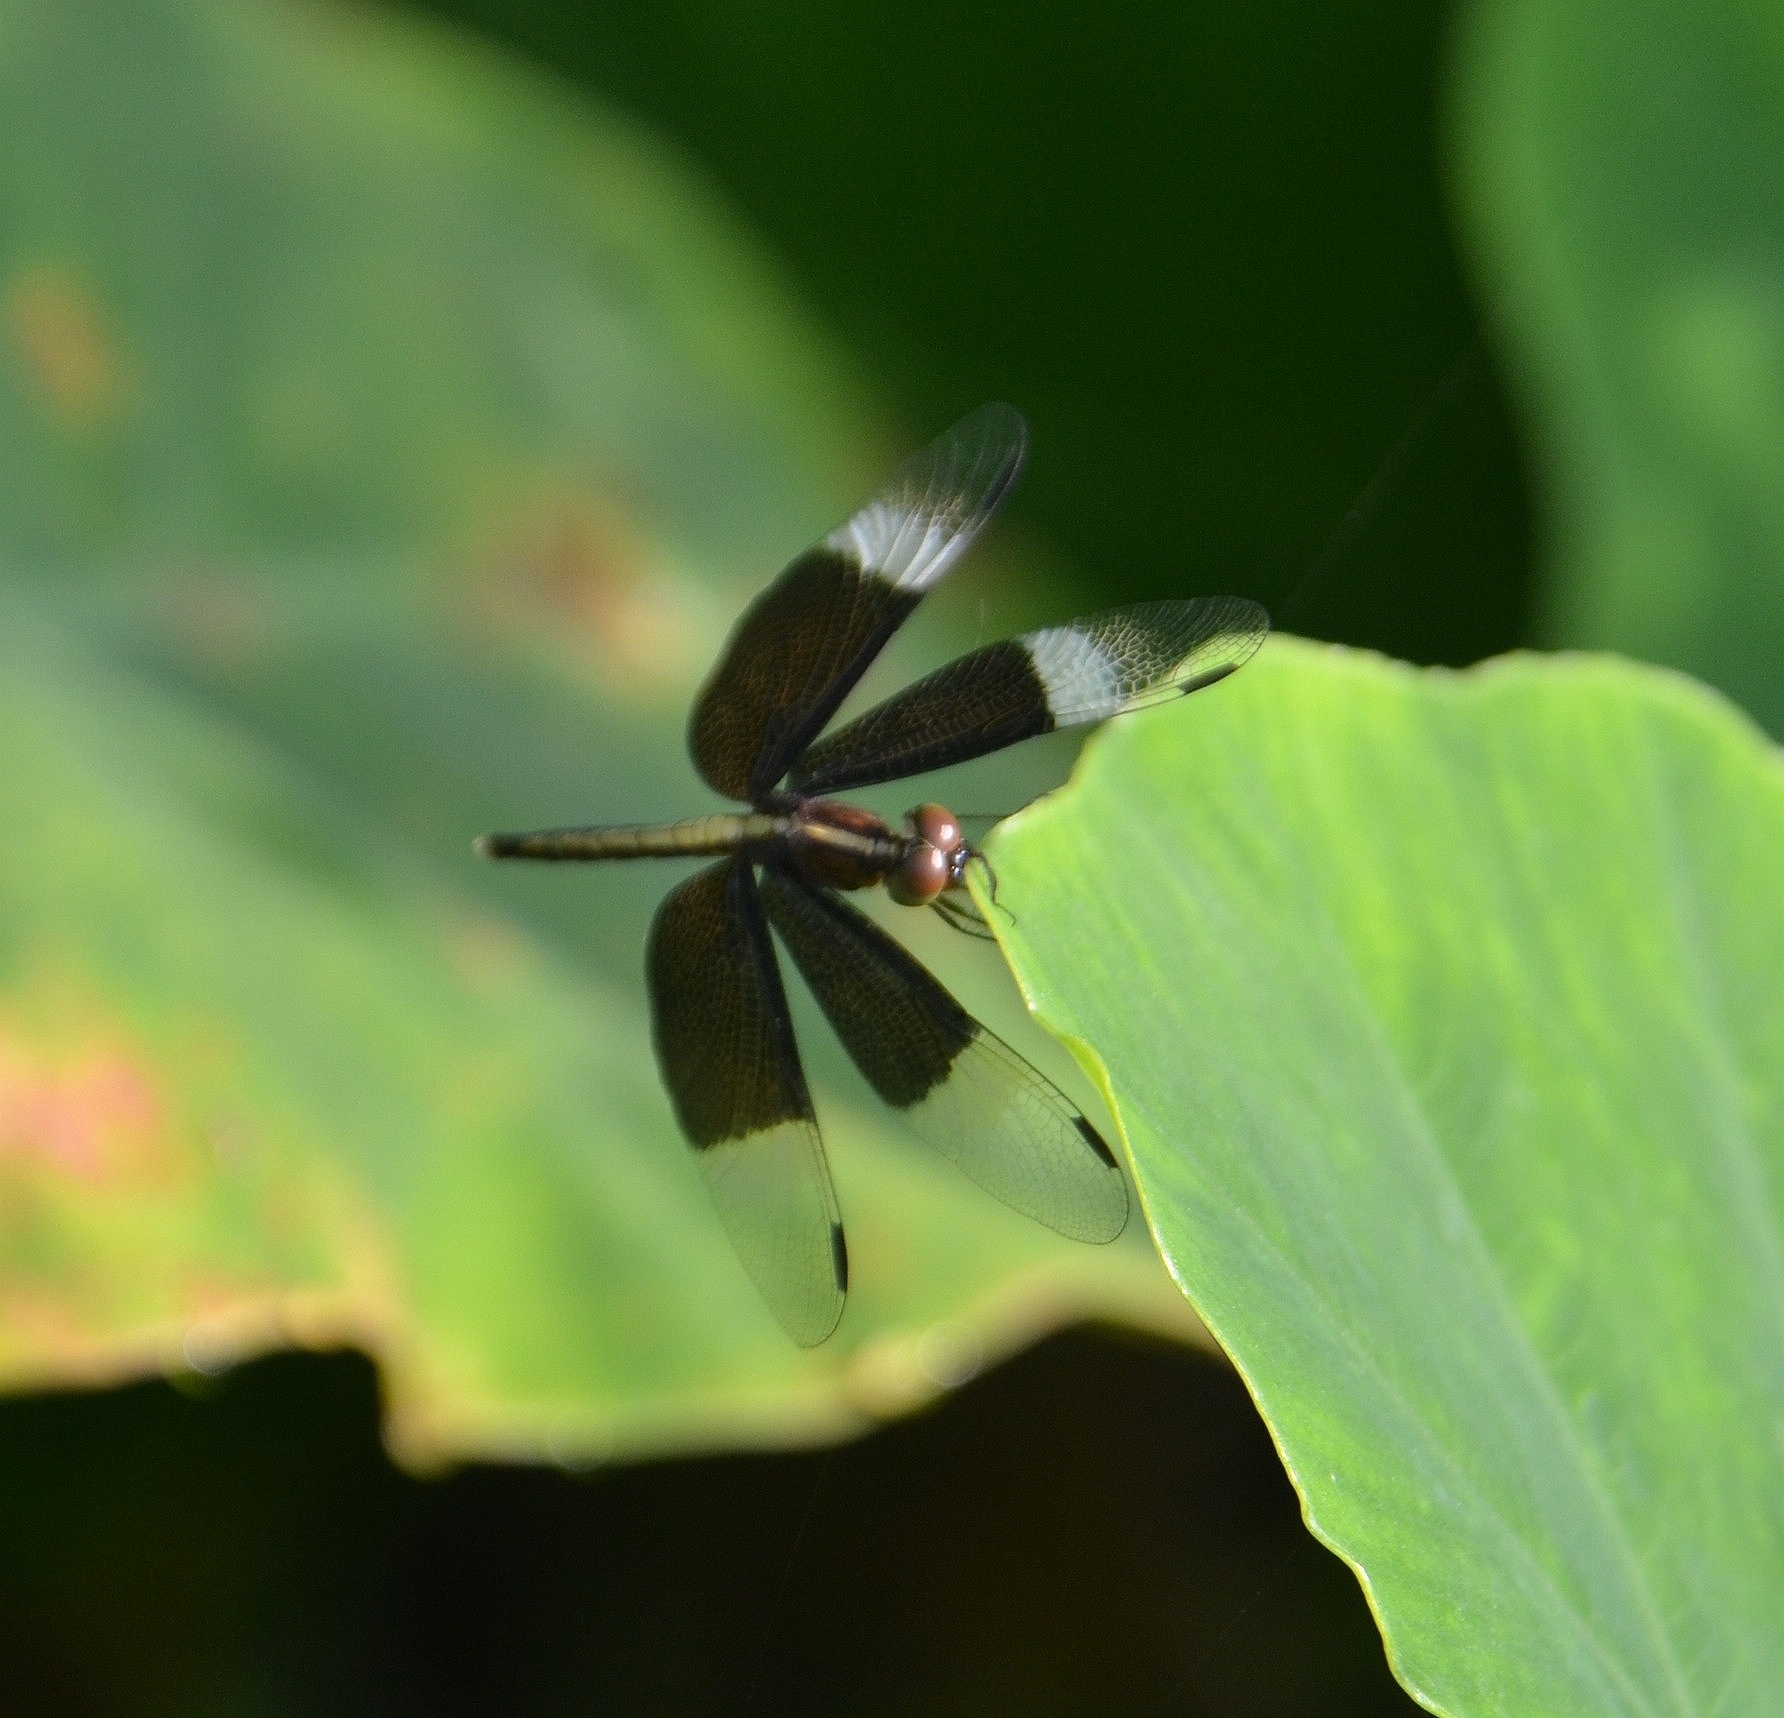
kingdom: Animalia
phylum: Arthropoda
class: Insecta
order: Odonata
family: Libellulidae
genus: Neurothemis
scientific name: Neurothemis tullia
